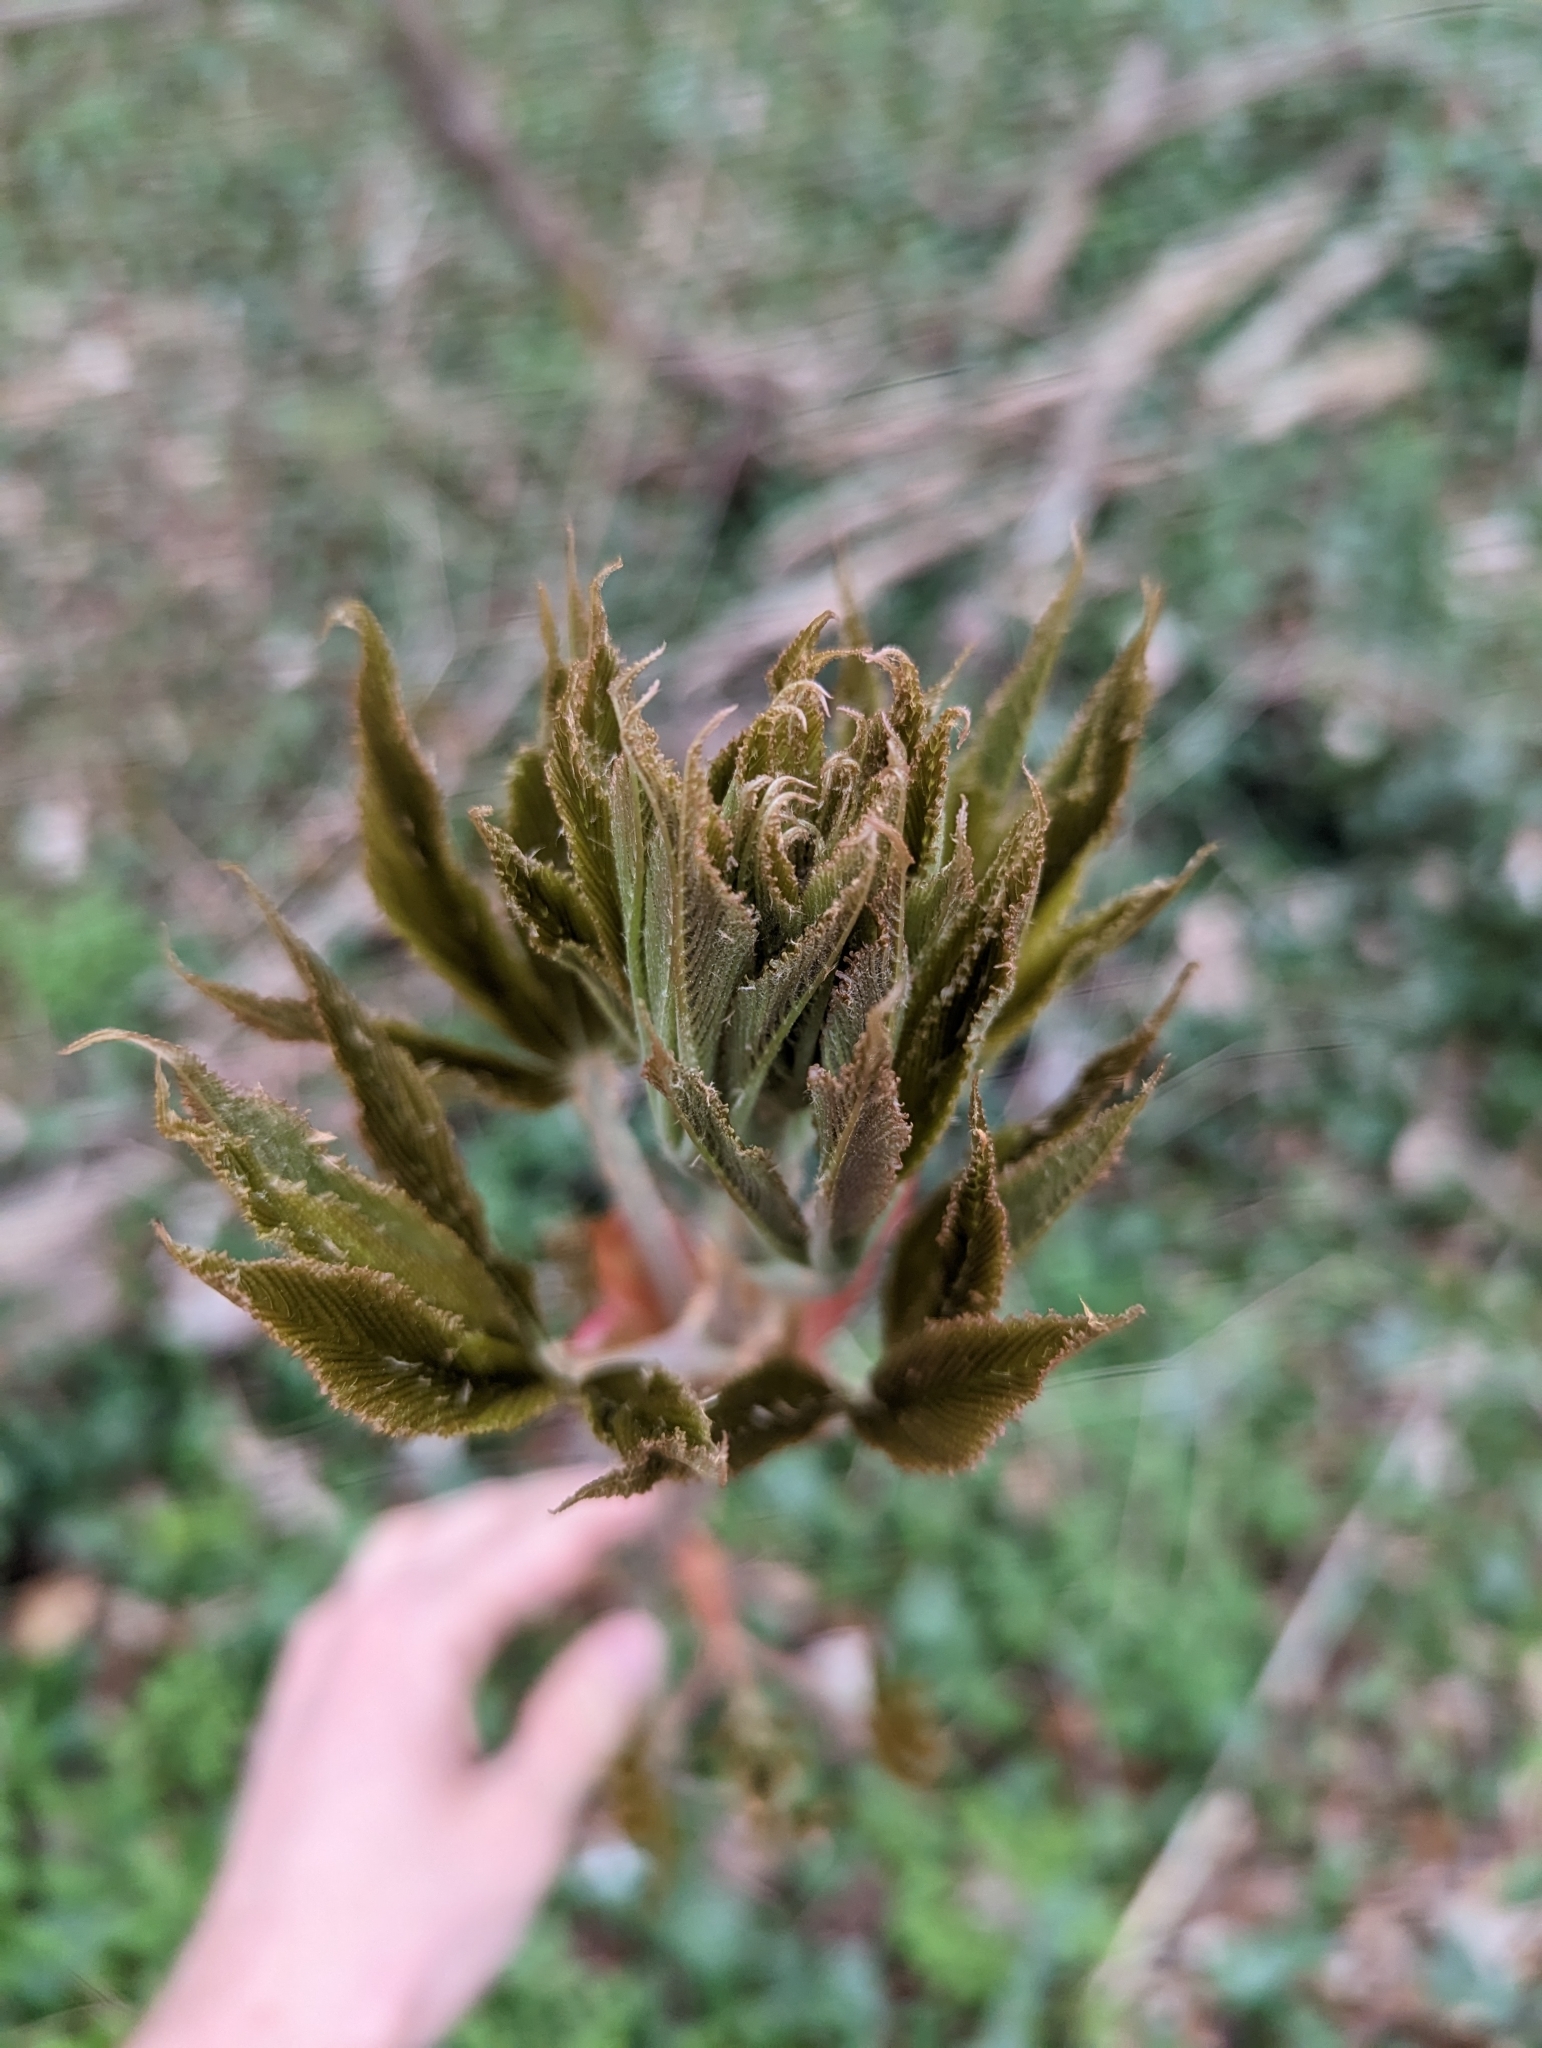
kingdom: Plantae
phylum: Tracheophyta
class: Magnoliopsida
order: Sapindales
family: Sapindaceae
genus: Aesculus
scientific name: Aesculus glabra
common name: Ohio buckeye
